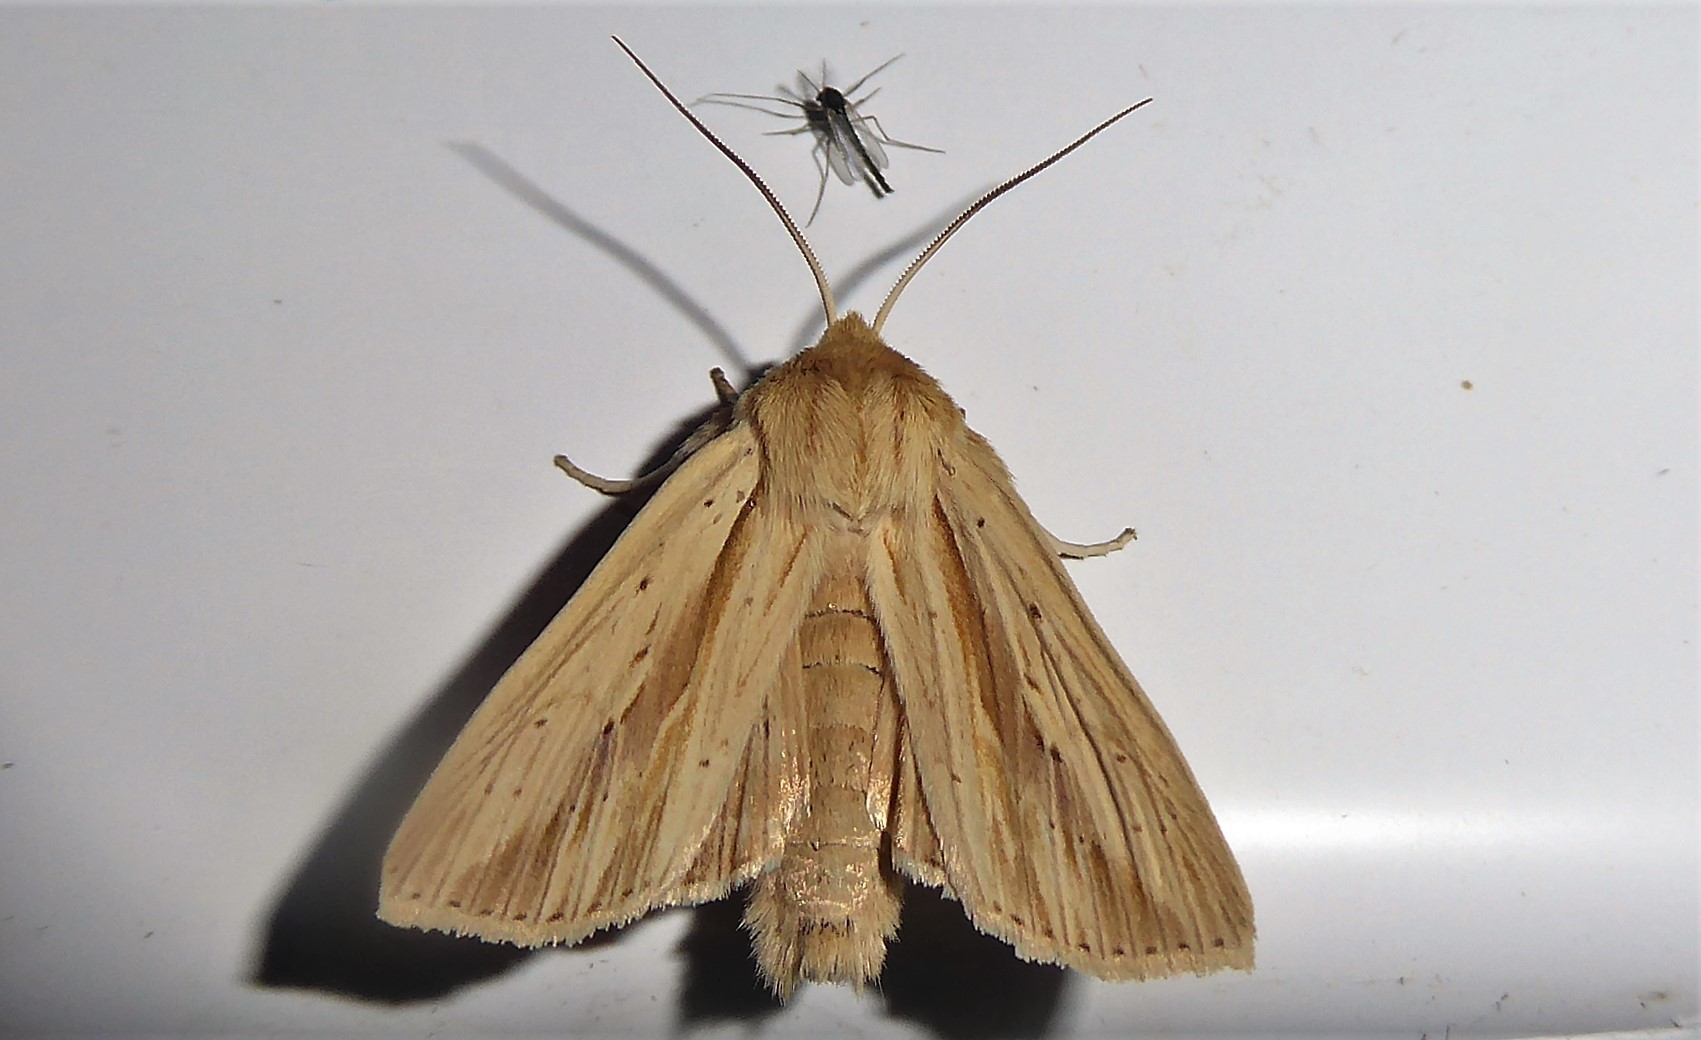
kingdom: Animalia
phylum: Arthropoda
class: Insecta
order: Lepidoptera
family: Noctuidae
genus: Ichneutica
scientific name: Ichneutica semivittata
